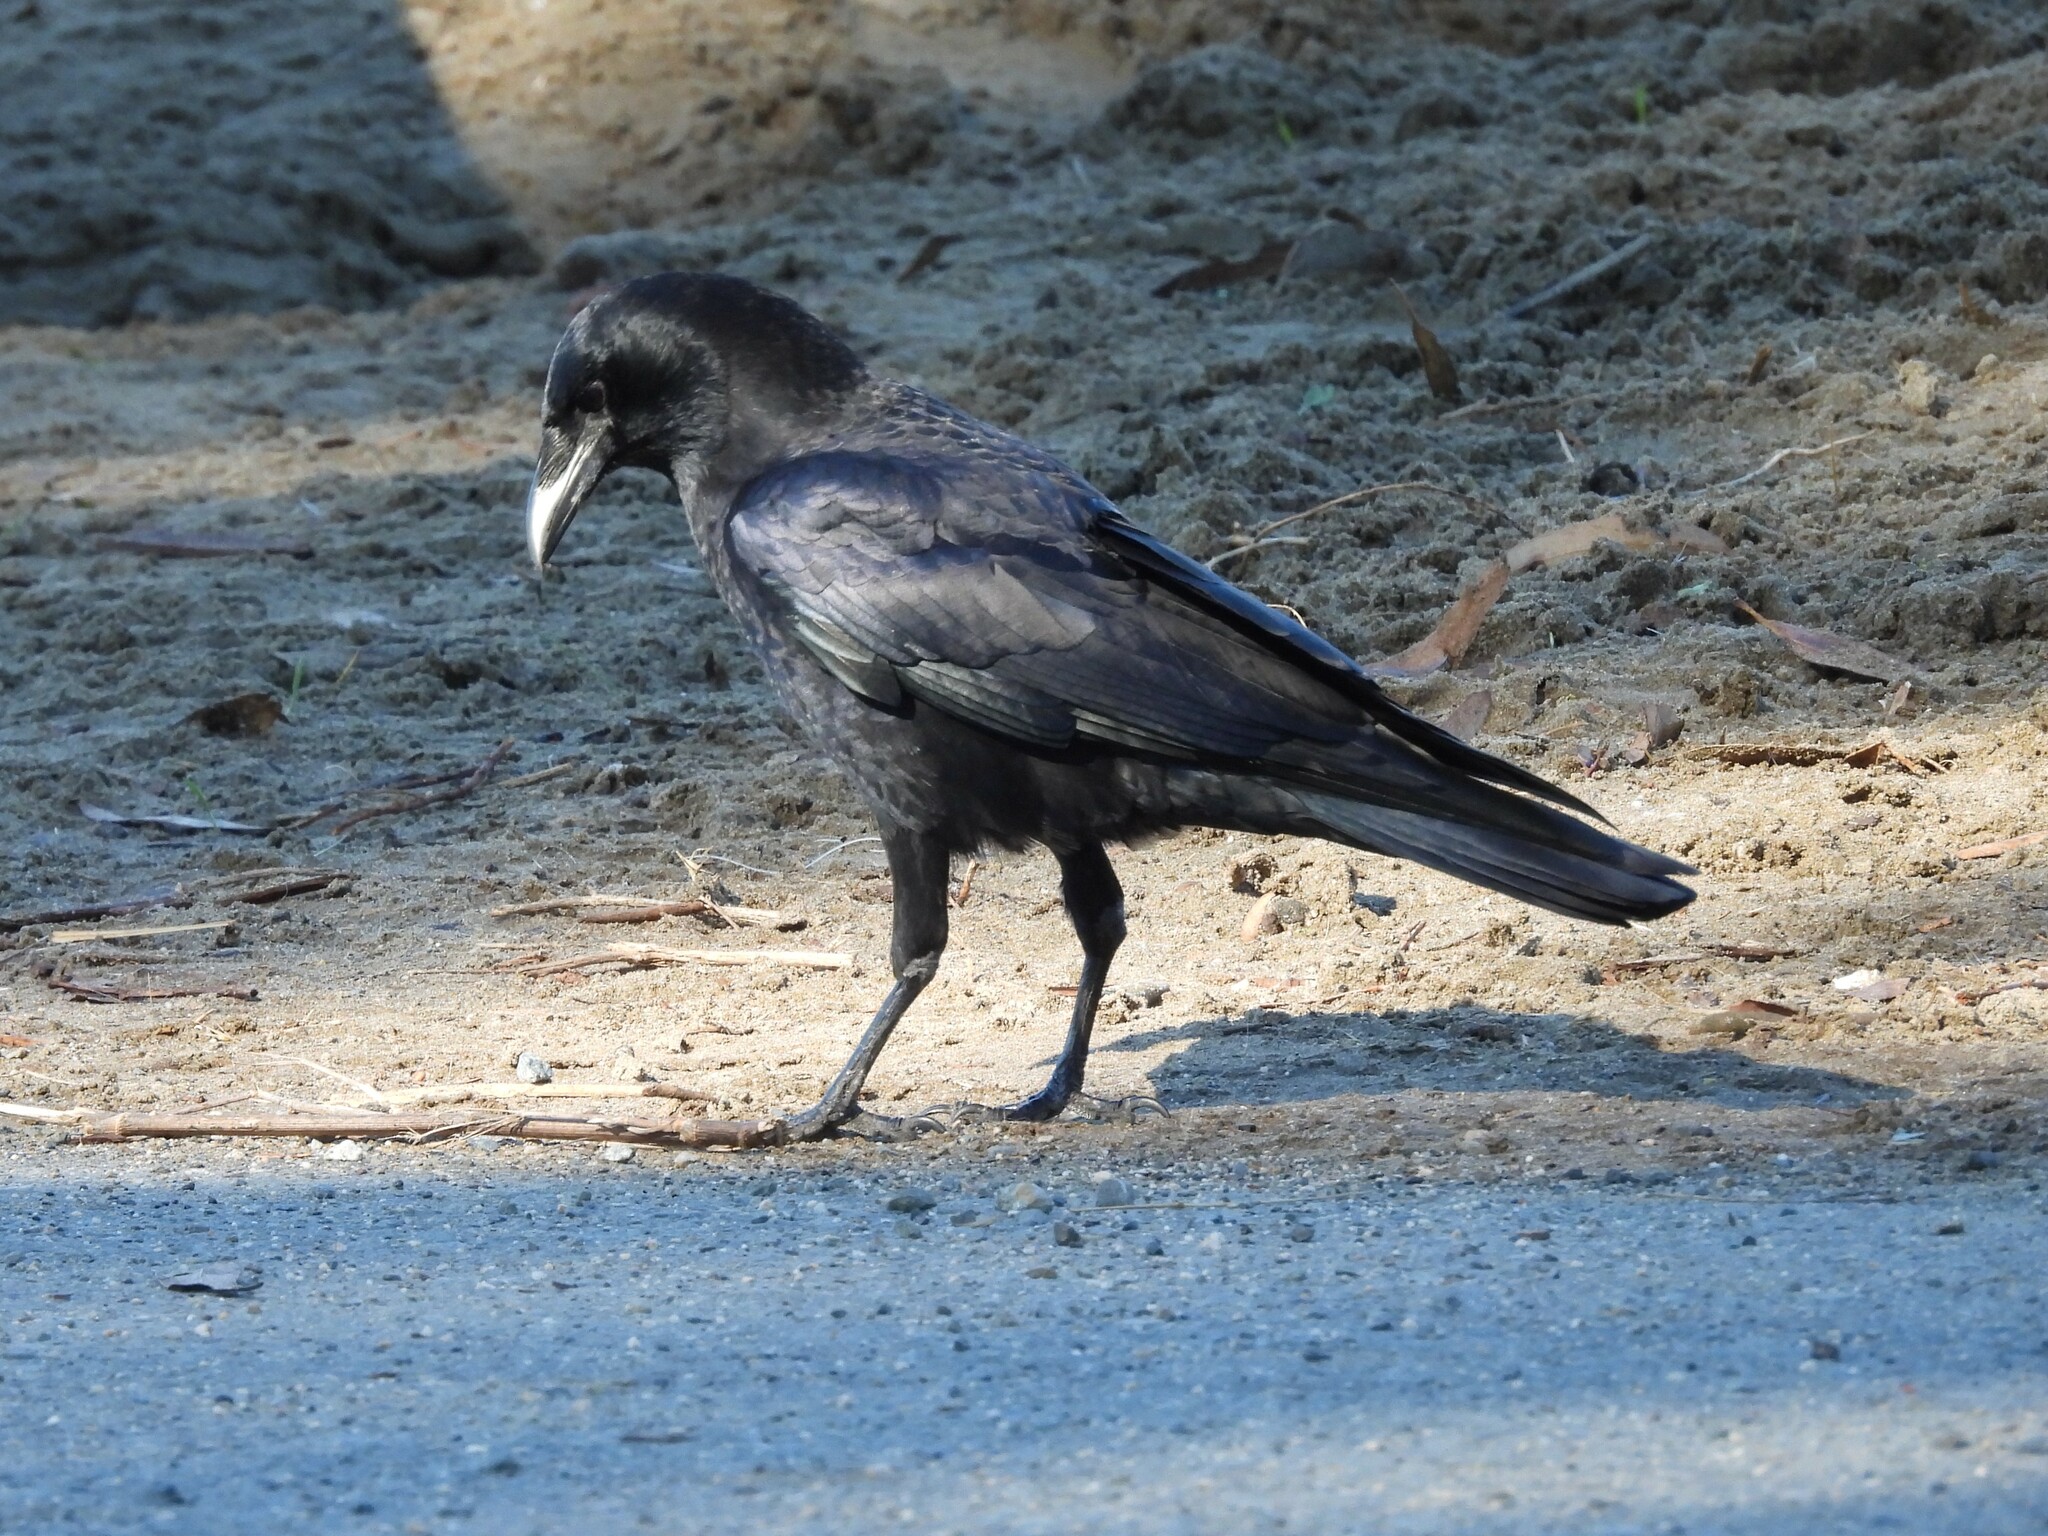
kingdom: Animalia
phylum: Chordata
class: Aves
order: Passeriformes
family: Corvidae
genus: Corvus
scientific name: Corvus brachyrhynchos
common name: American crow
